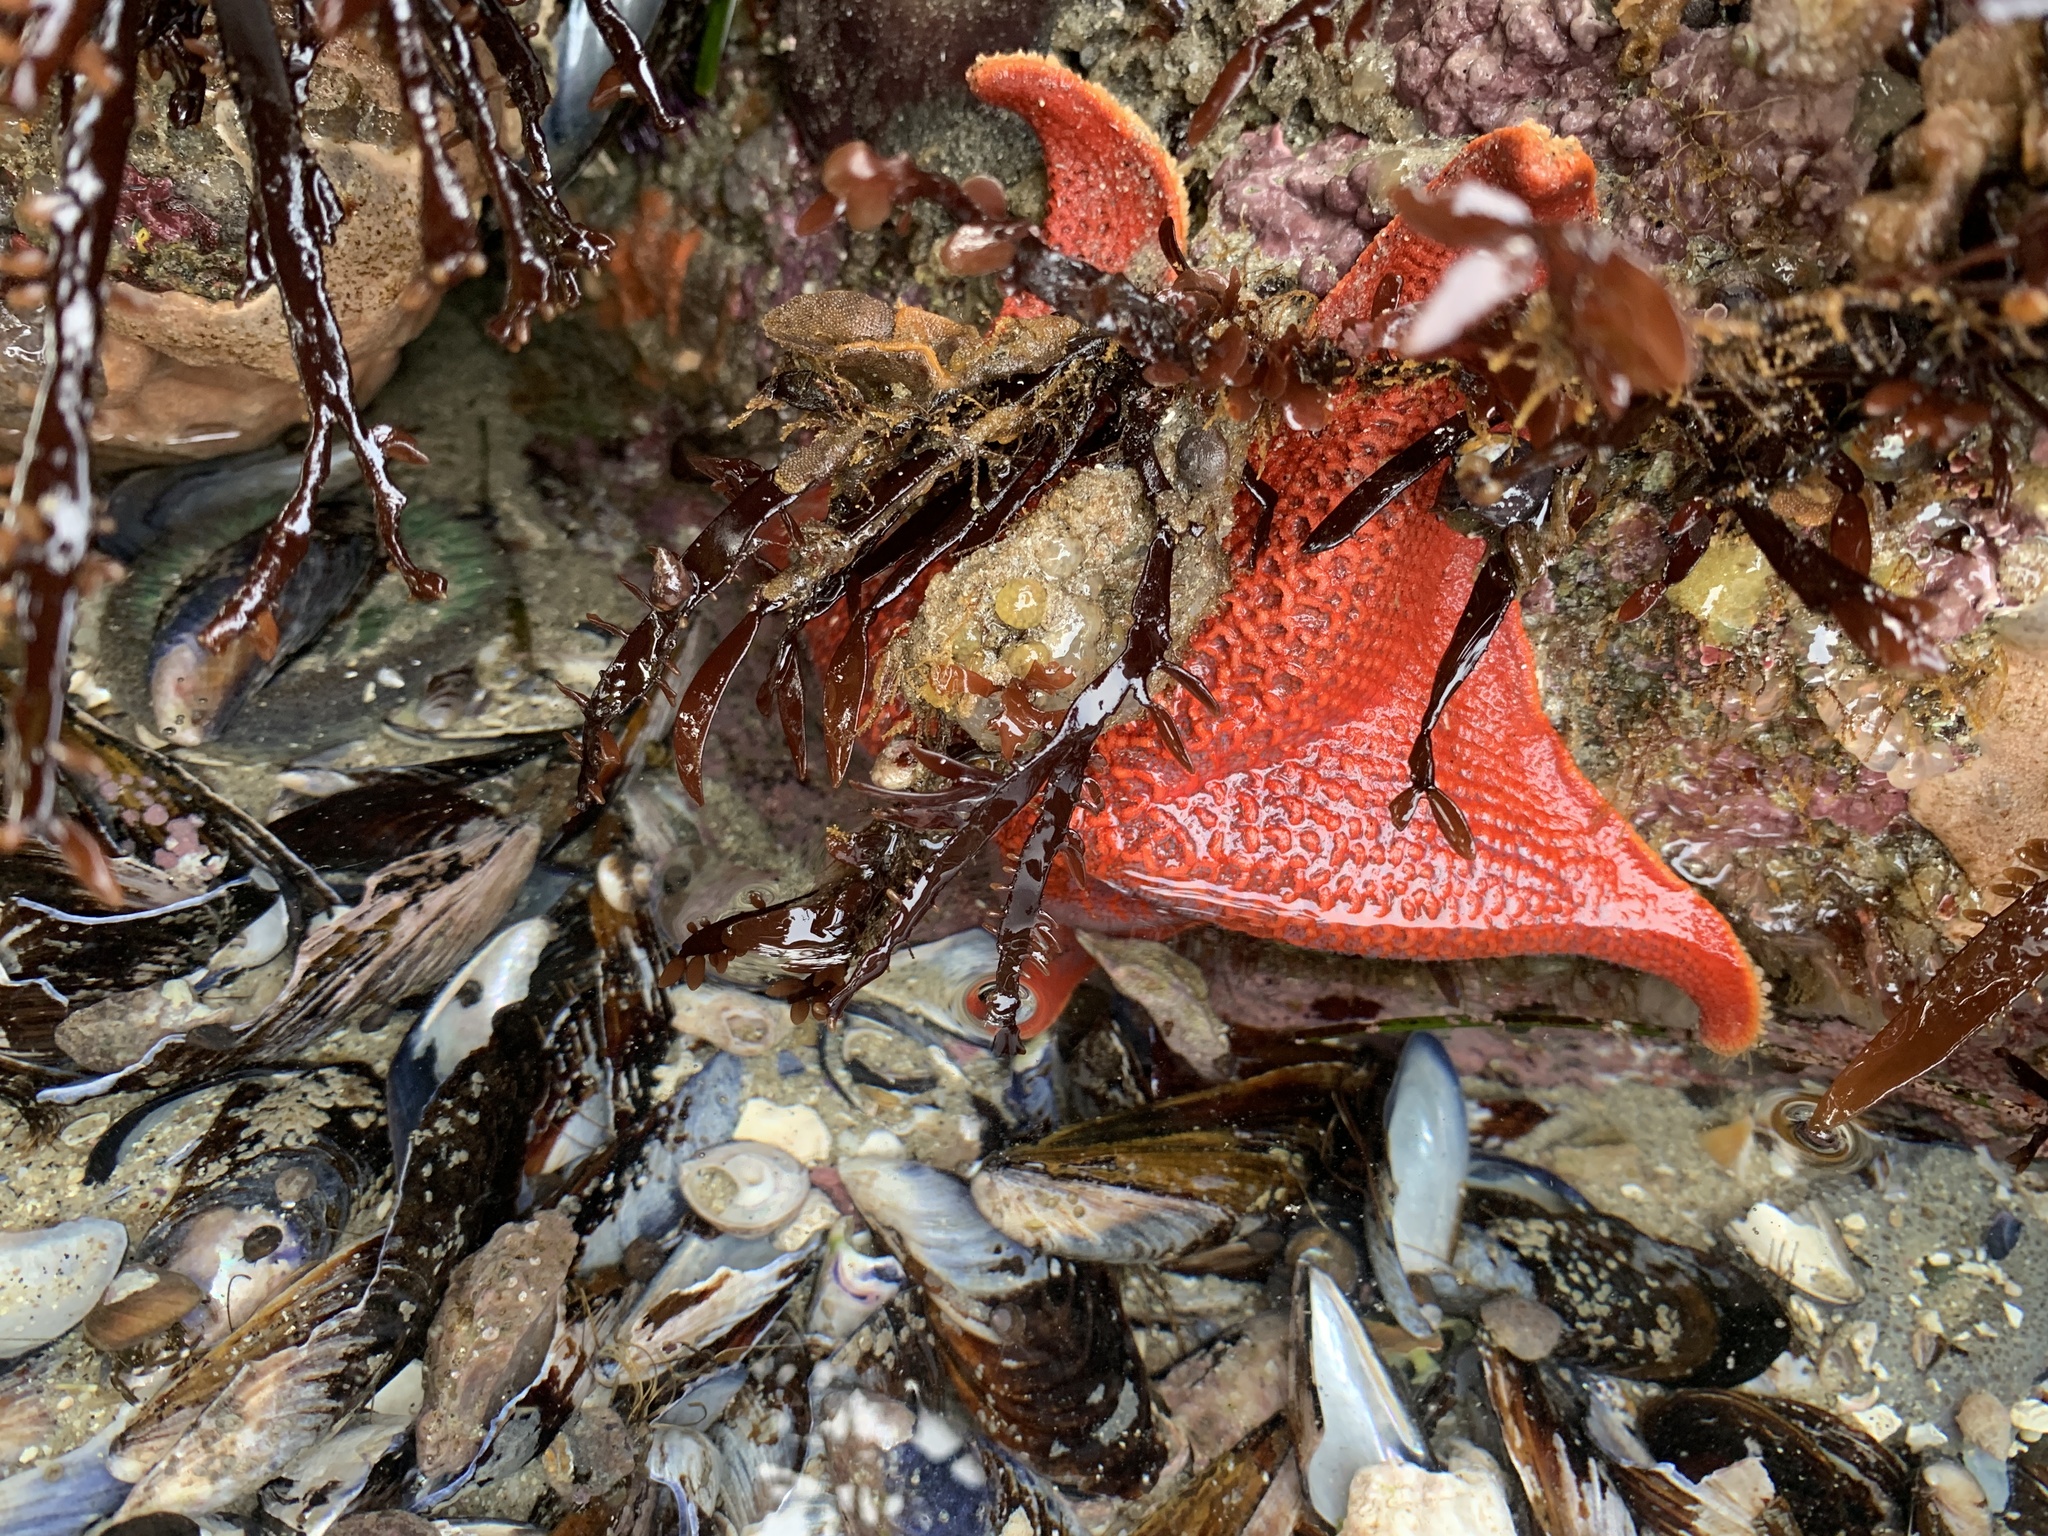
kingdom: Animalia
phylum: Echinodermata
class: Asteroidea
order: Valvatida
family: Asterinidae
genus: Patiria
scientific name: Patiria miniata
